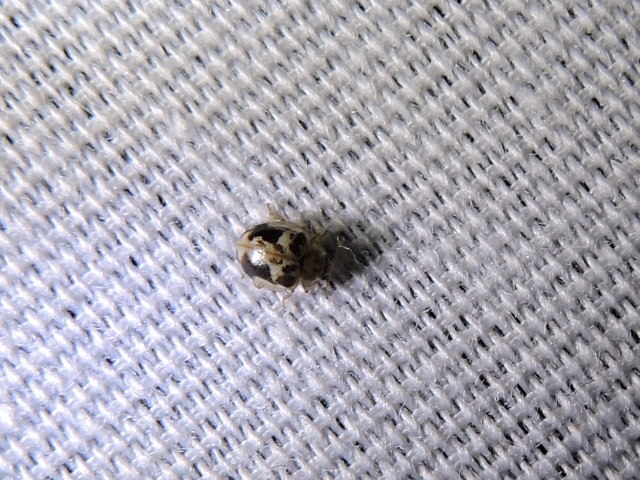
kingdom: Animalia
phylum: Arthropoda
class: Insecta
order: Coleoptera
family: Coccinellidae
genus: Psyllobora
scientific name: Psyllobora renifer
